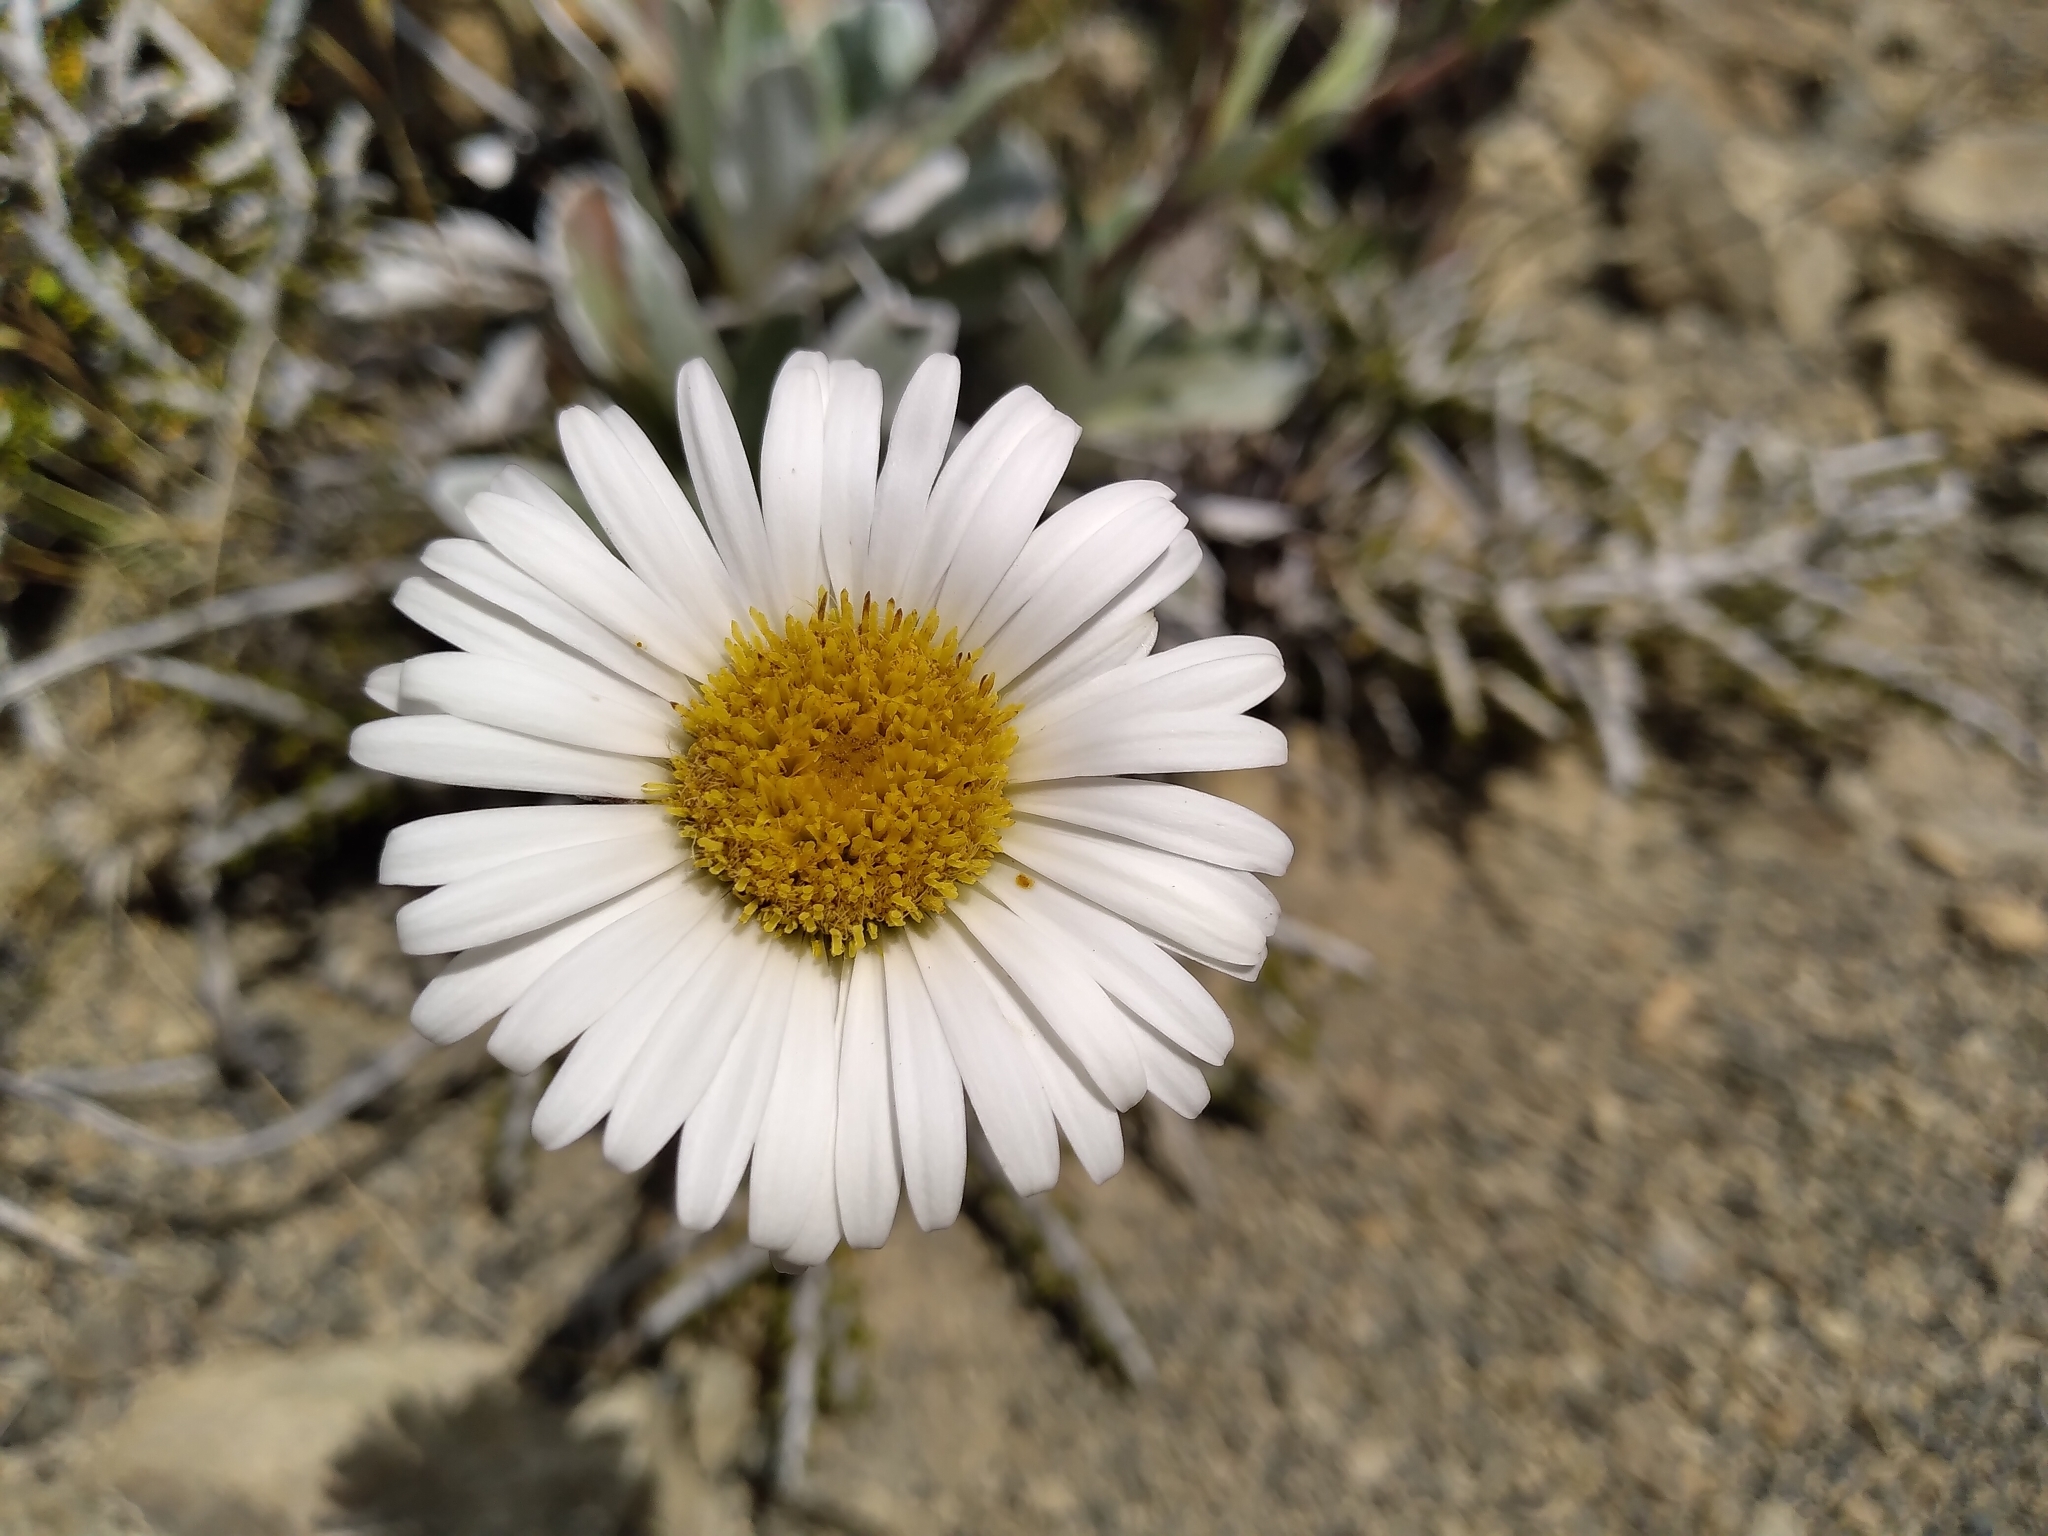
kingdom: Plantae
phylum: Tracheophyta
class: Magnoliopsida
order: Asterales
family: Asteraceae
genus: Celmisia
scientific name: Celmisia cockayneana
